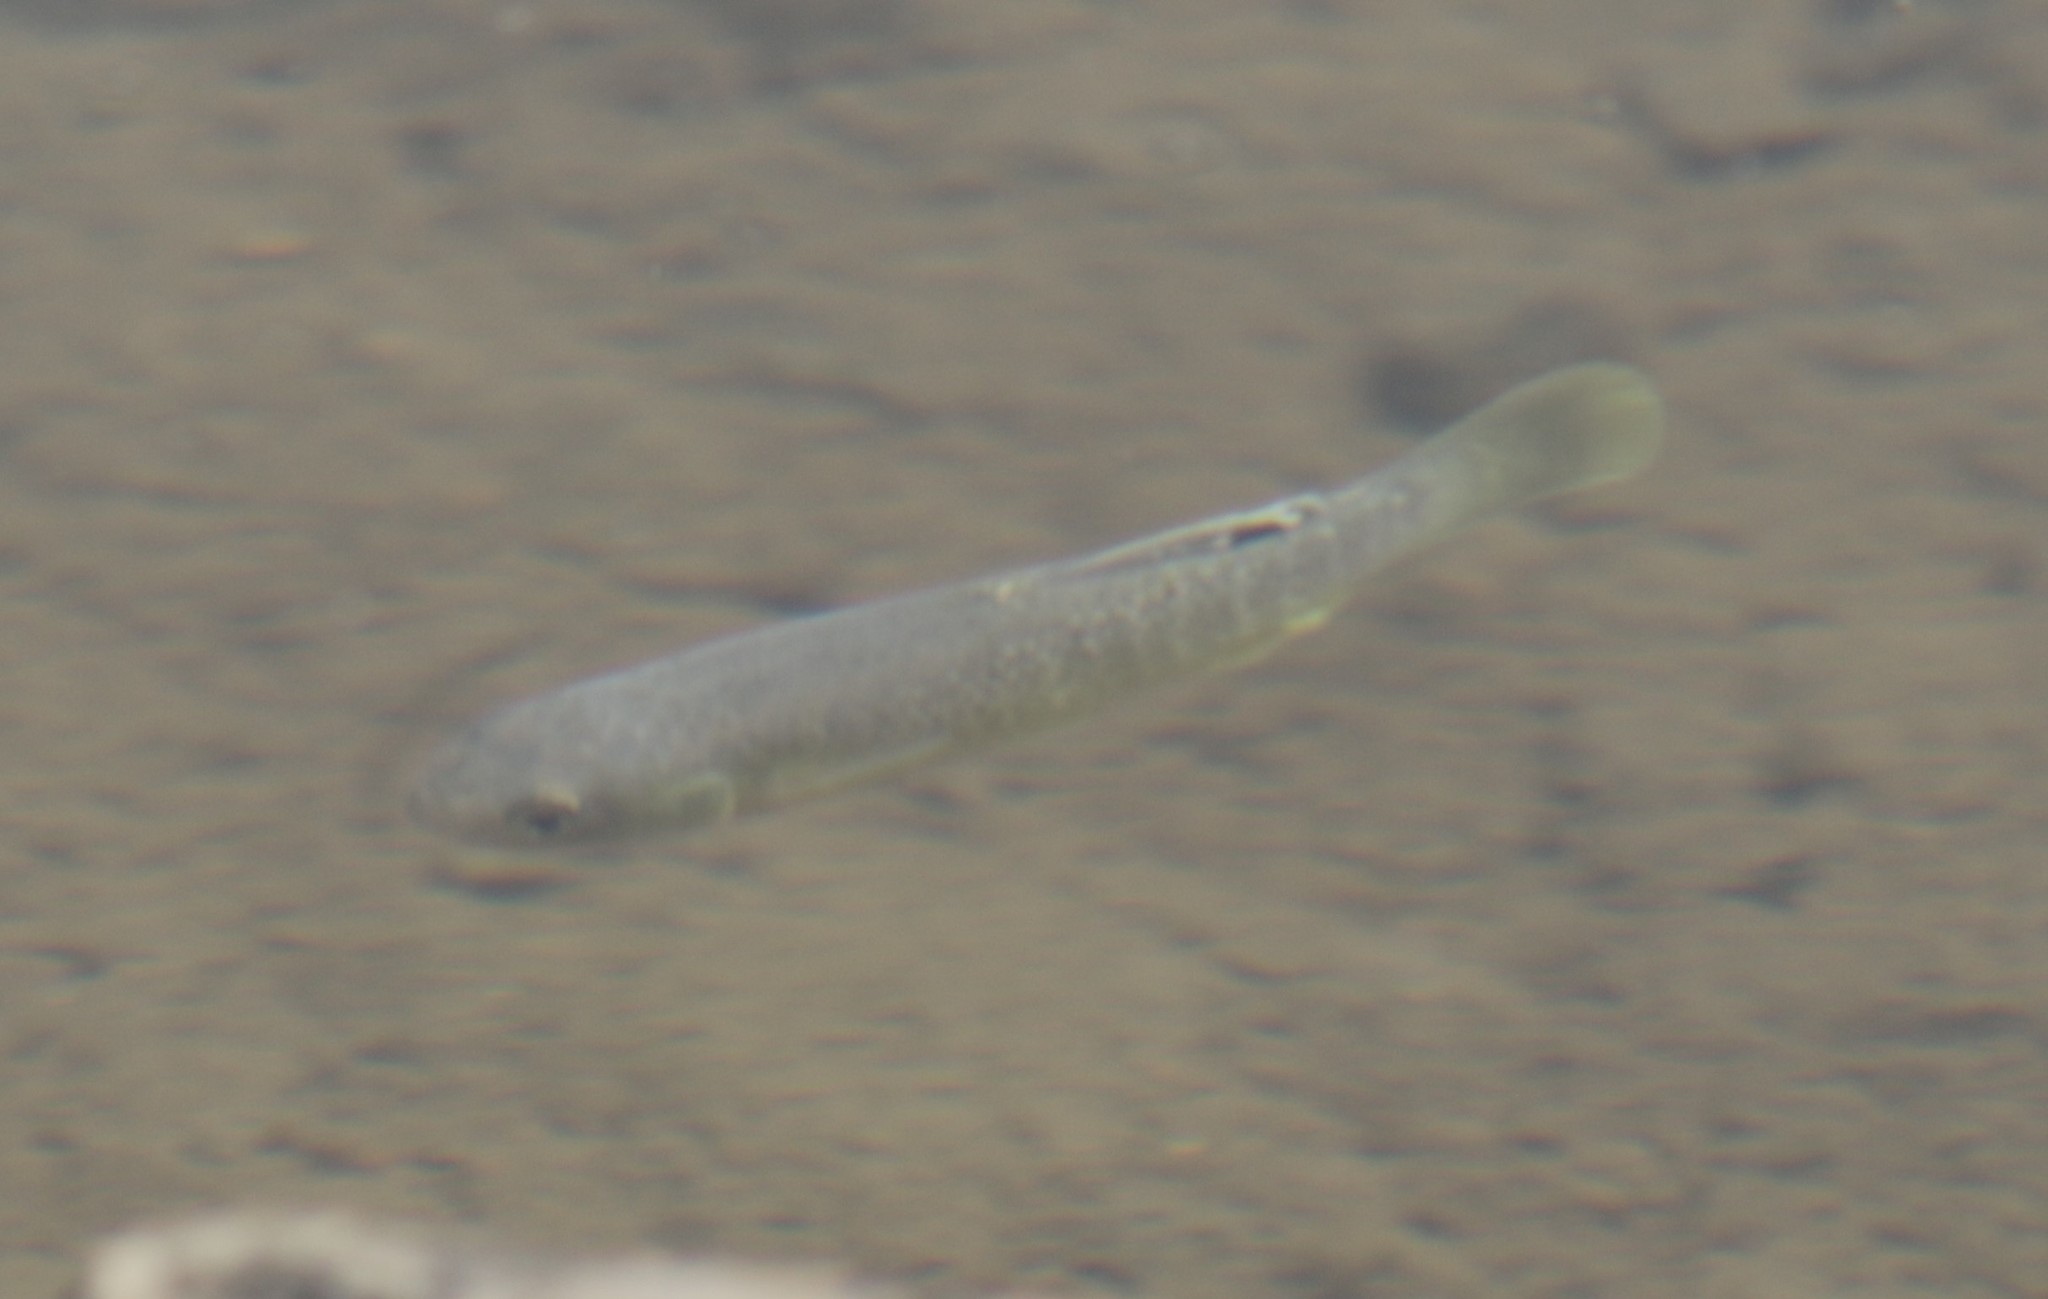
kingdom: Animalia
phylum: Chordata
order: Cyprinodontiformes
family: Fundulidae
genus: Fundulus
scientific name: Fundulus heteroclitus
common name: Mummichog
